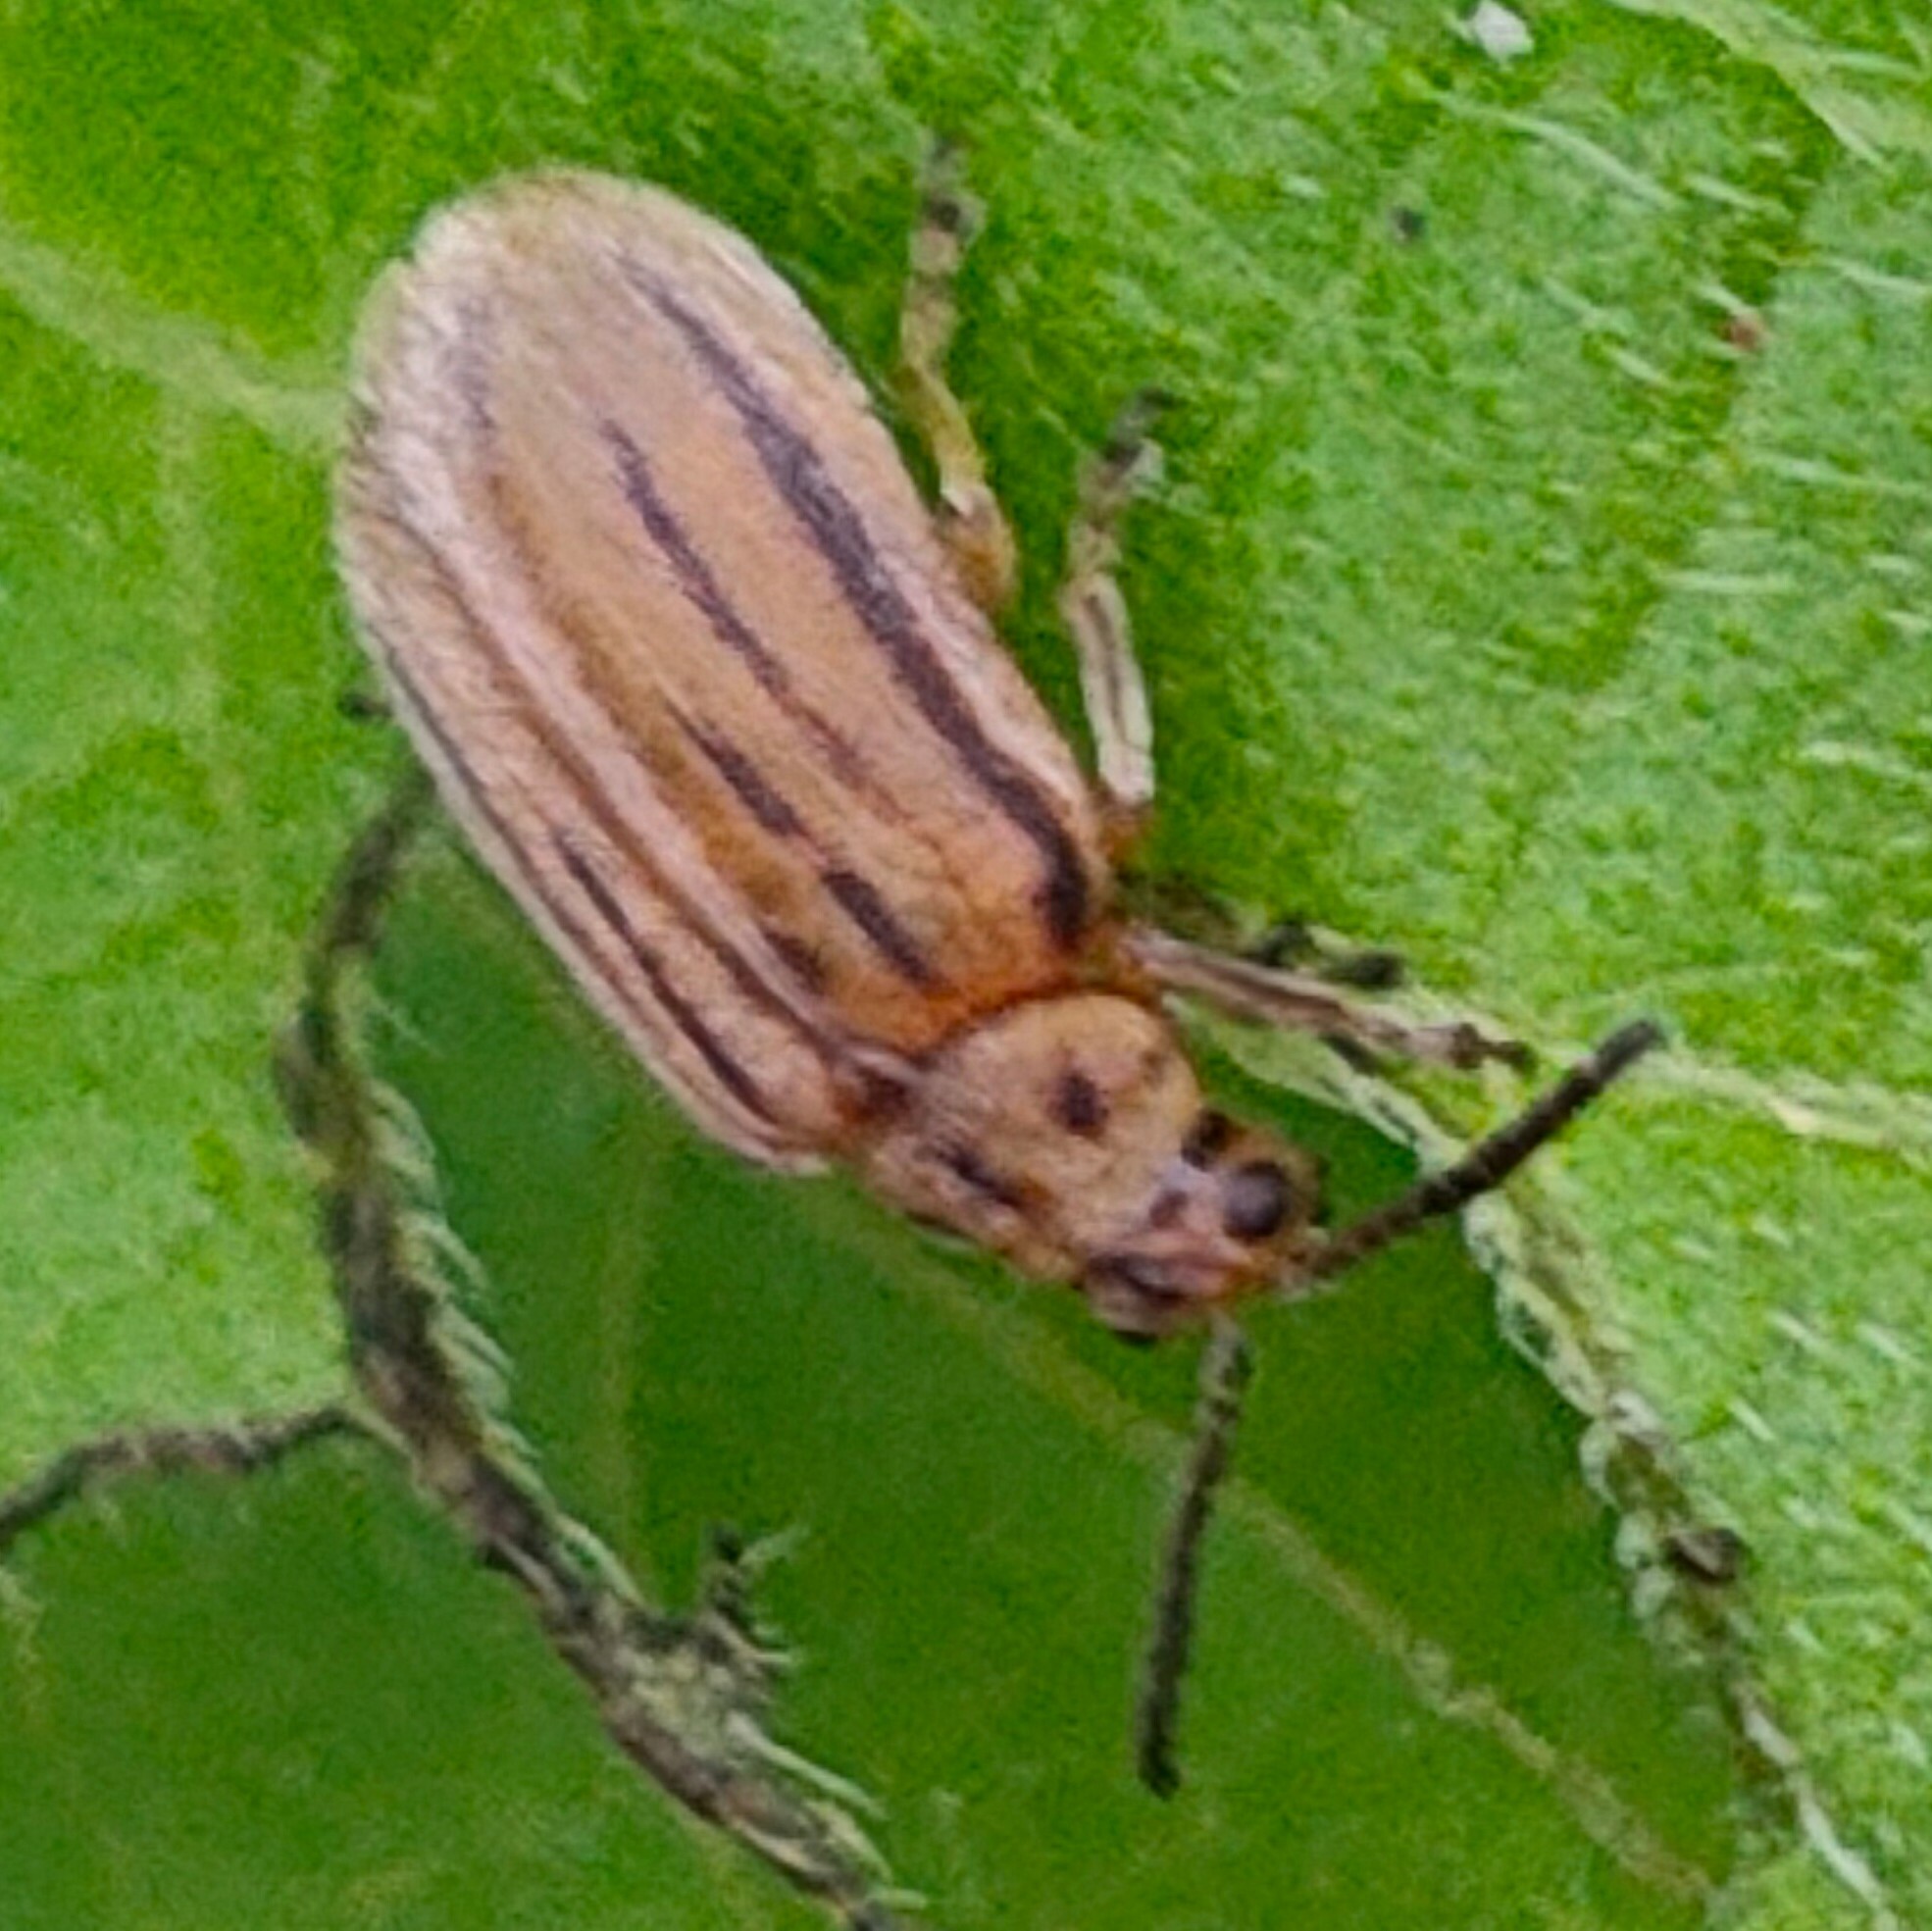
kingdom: Animalia
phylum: Arthropoda
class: Insecta
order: Coleoptera
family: Chrysomelidae
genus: Ophraella
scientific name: Ophraella communa
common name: Ragweed leaf beetle
